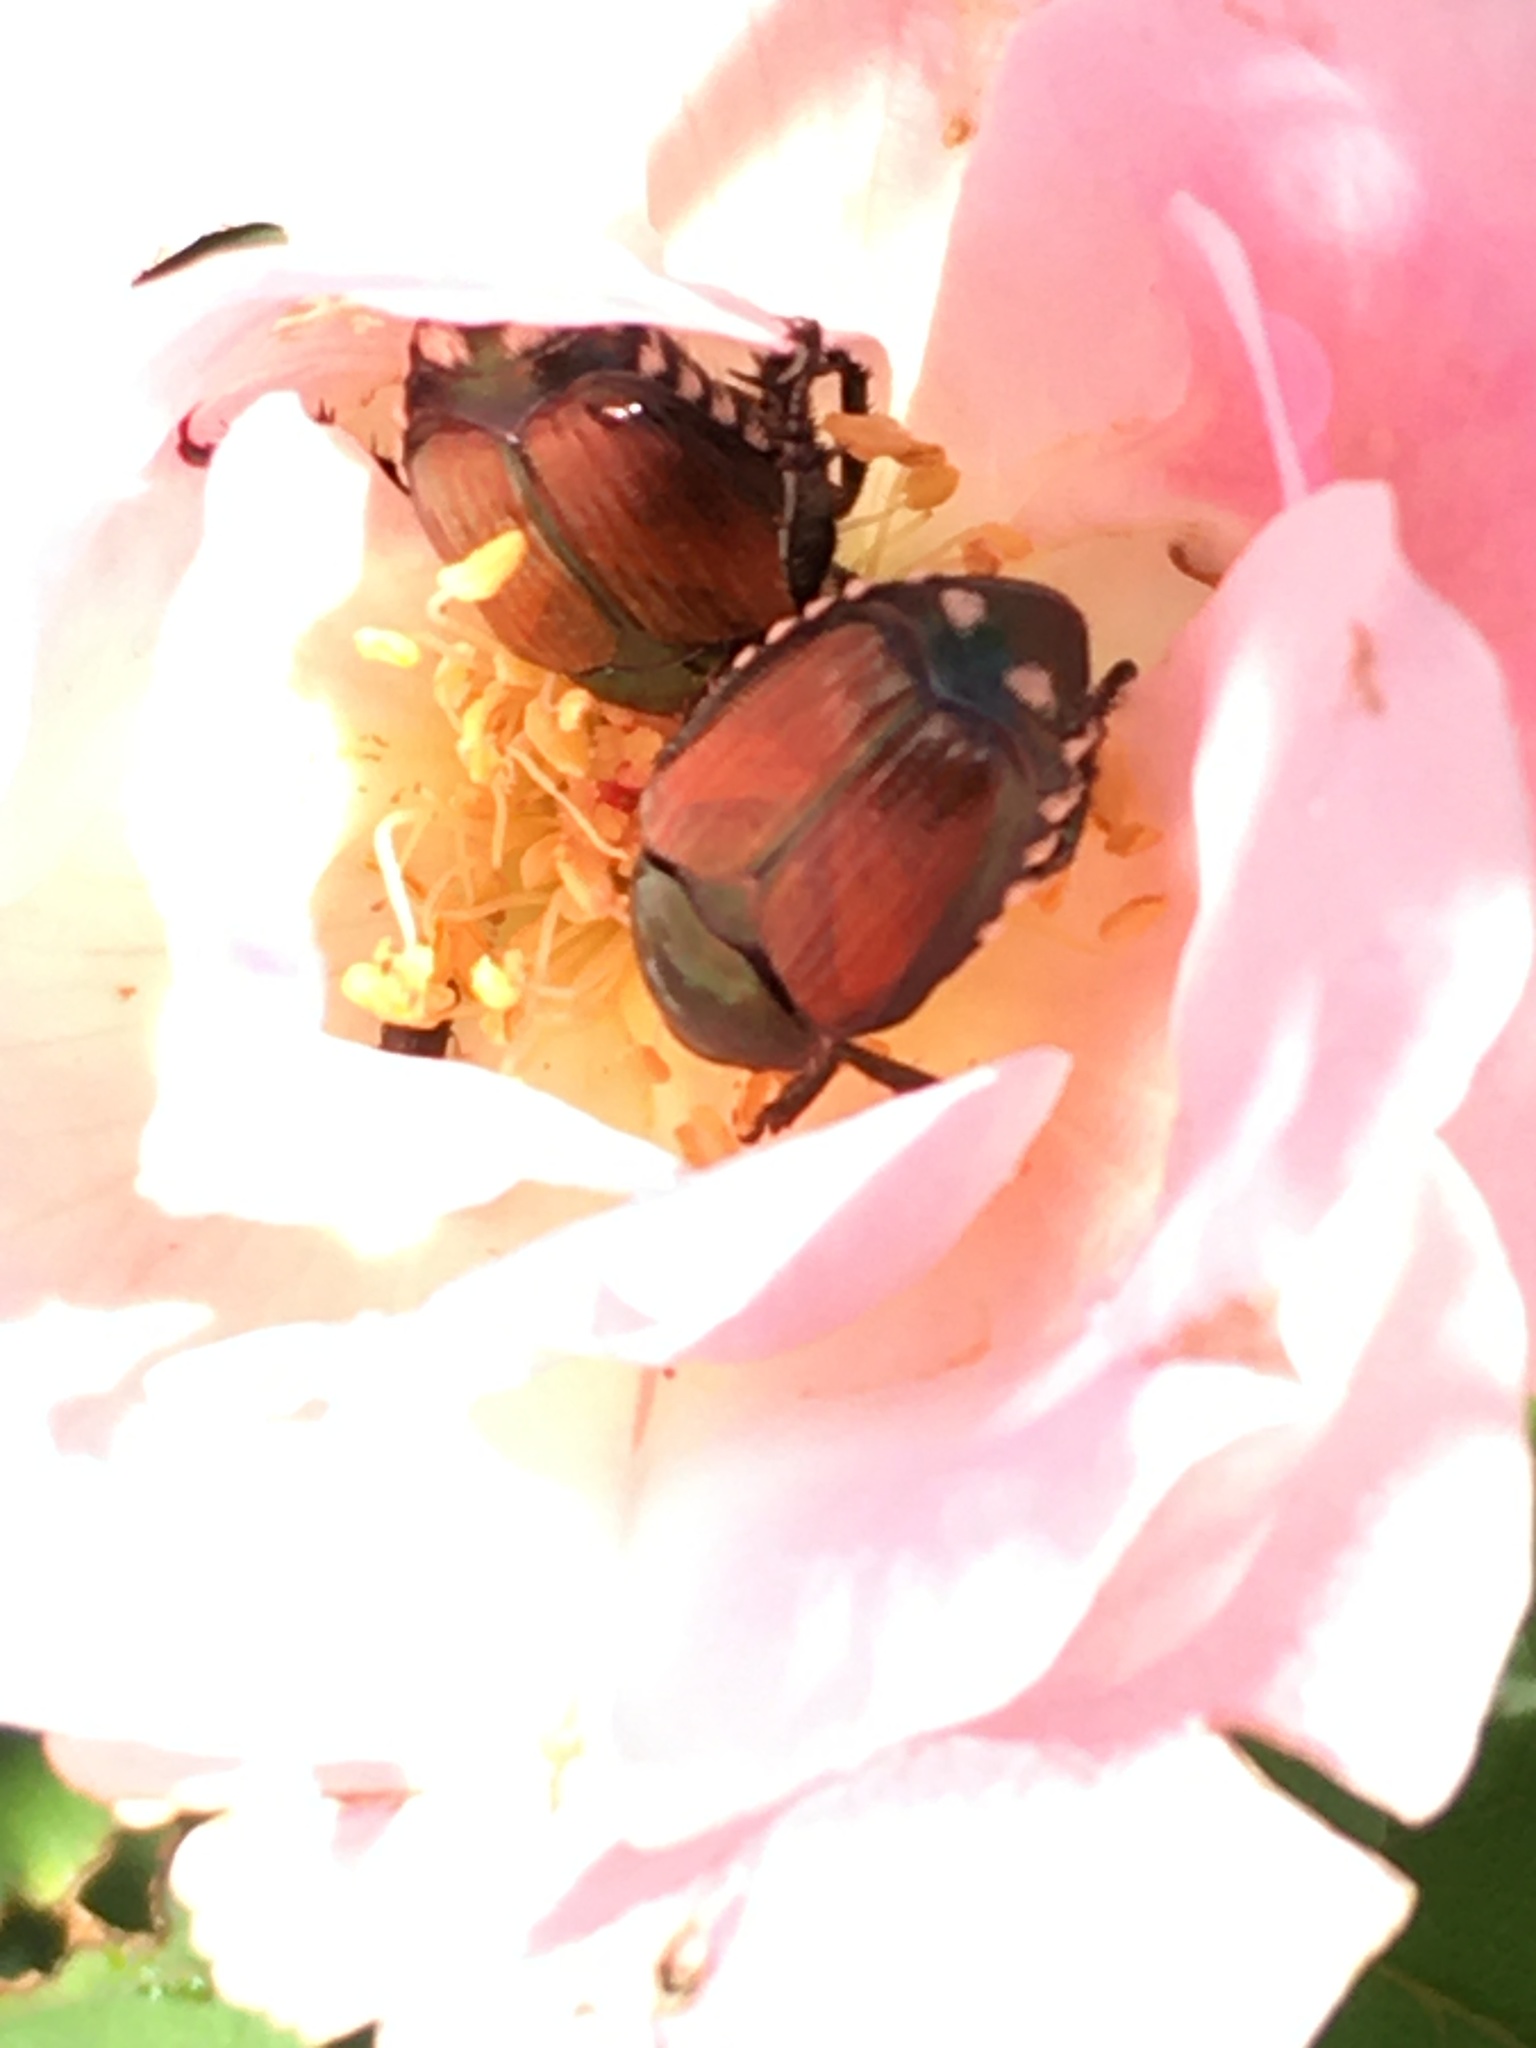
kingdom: Animalia
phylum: Arthropoda
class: Insecta
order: Coleoptera
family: Scarabaeidae
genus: Popillia
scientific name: Popillia japonica
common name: Japanese beetle
